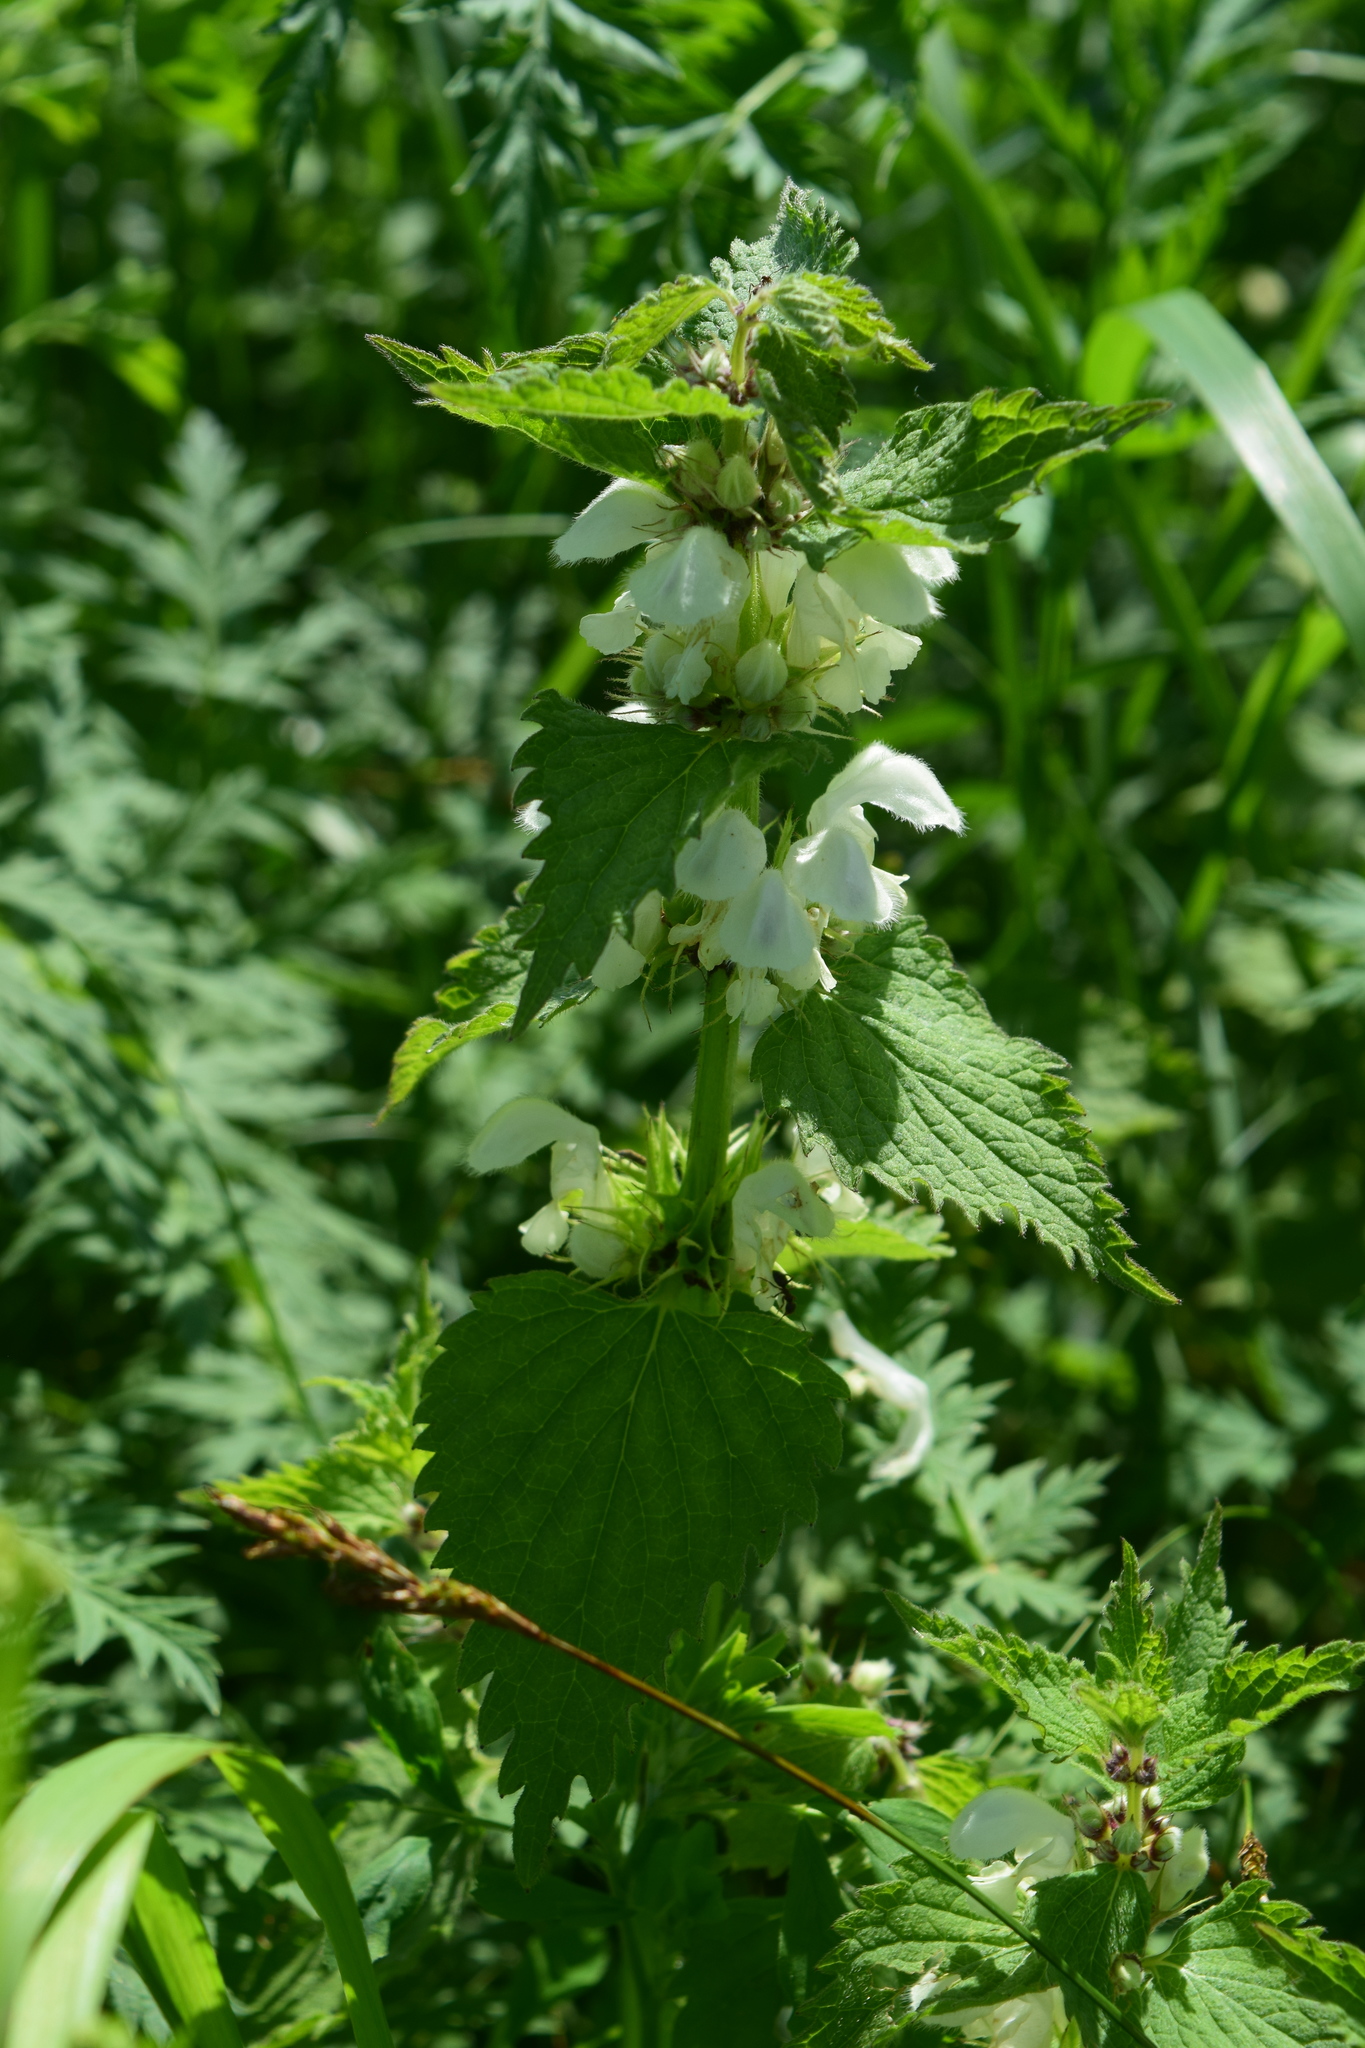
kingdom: Plantae
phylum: Tracheophyta
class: Magnoliopsida
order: Lamiales
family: Lamiaceae
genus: Lamium
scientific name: Lamium album
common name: White dead-nettle
